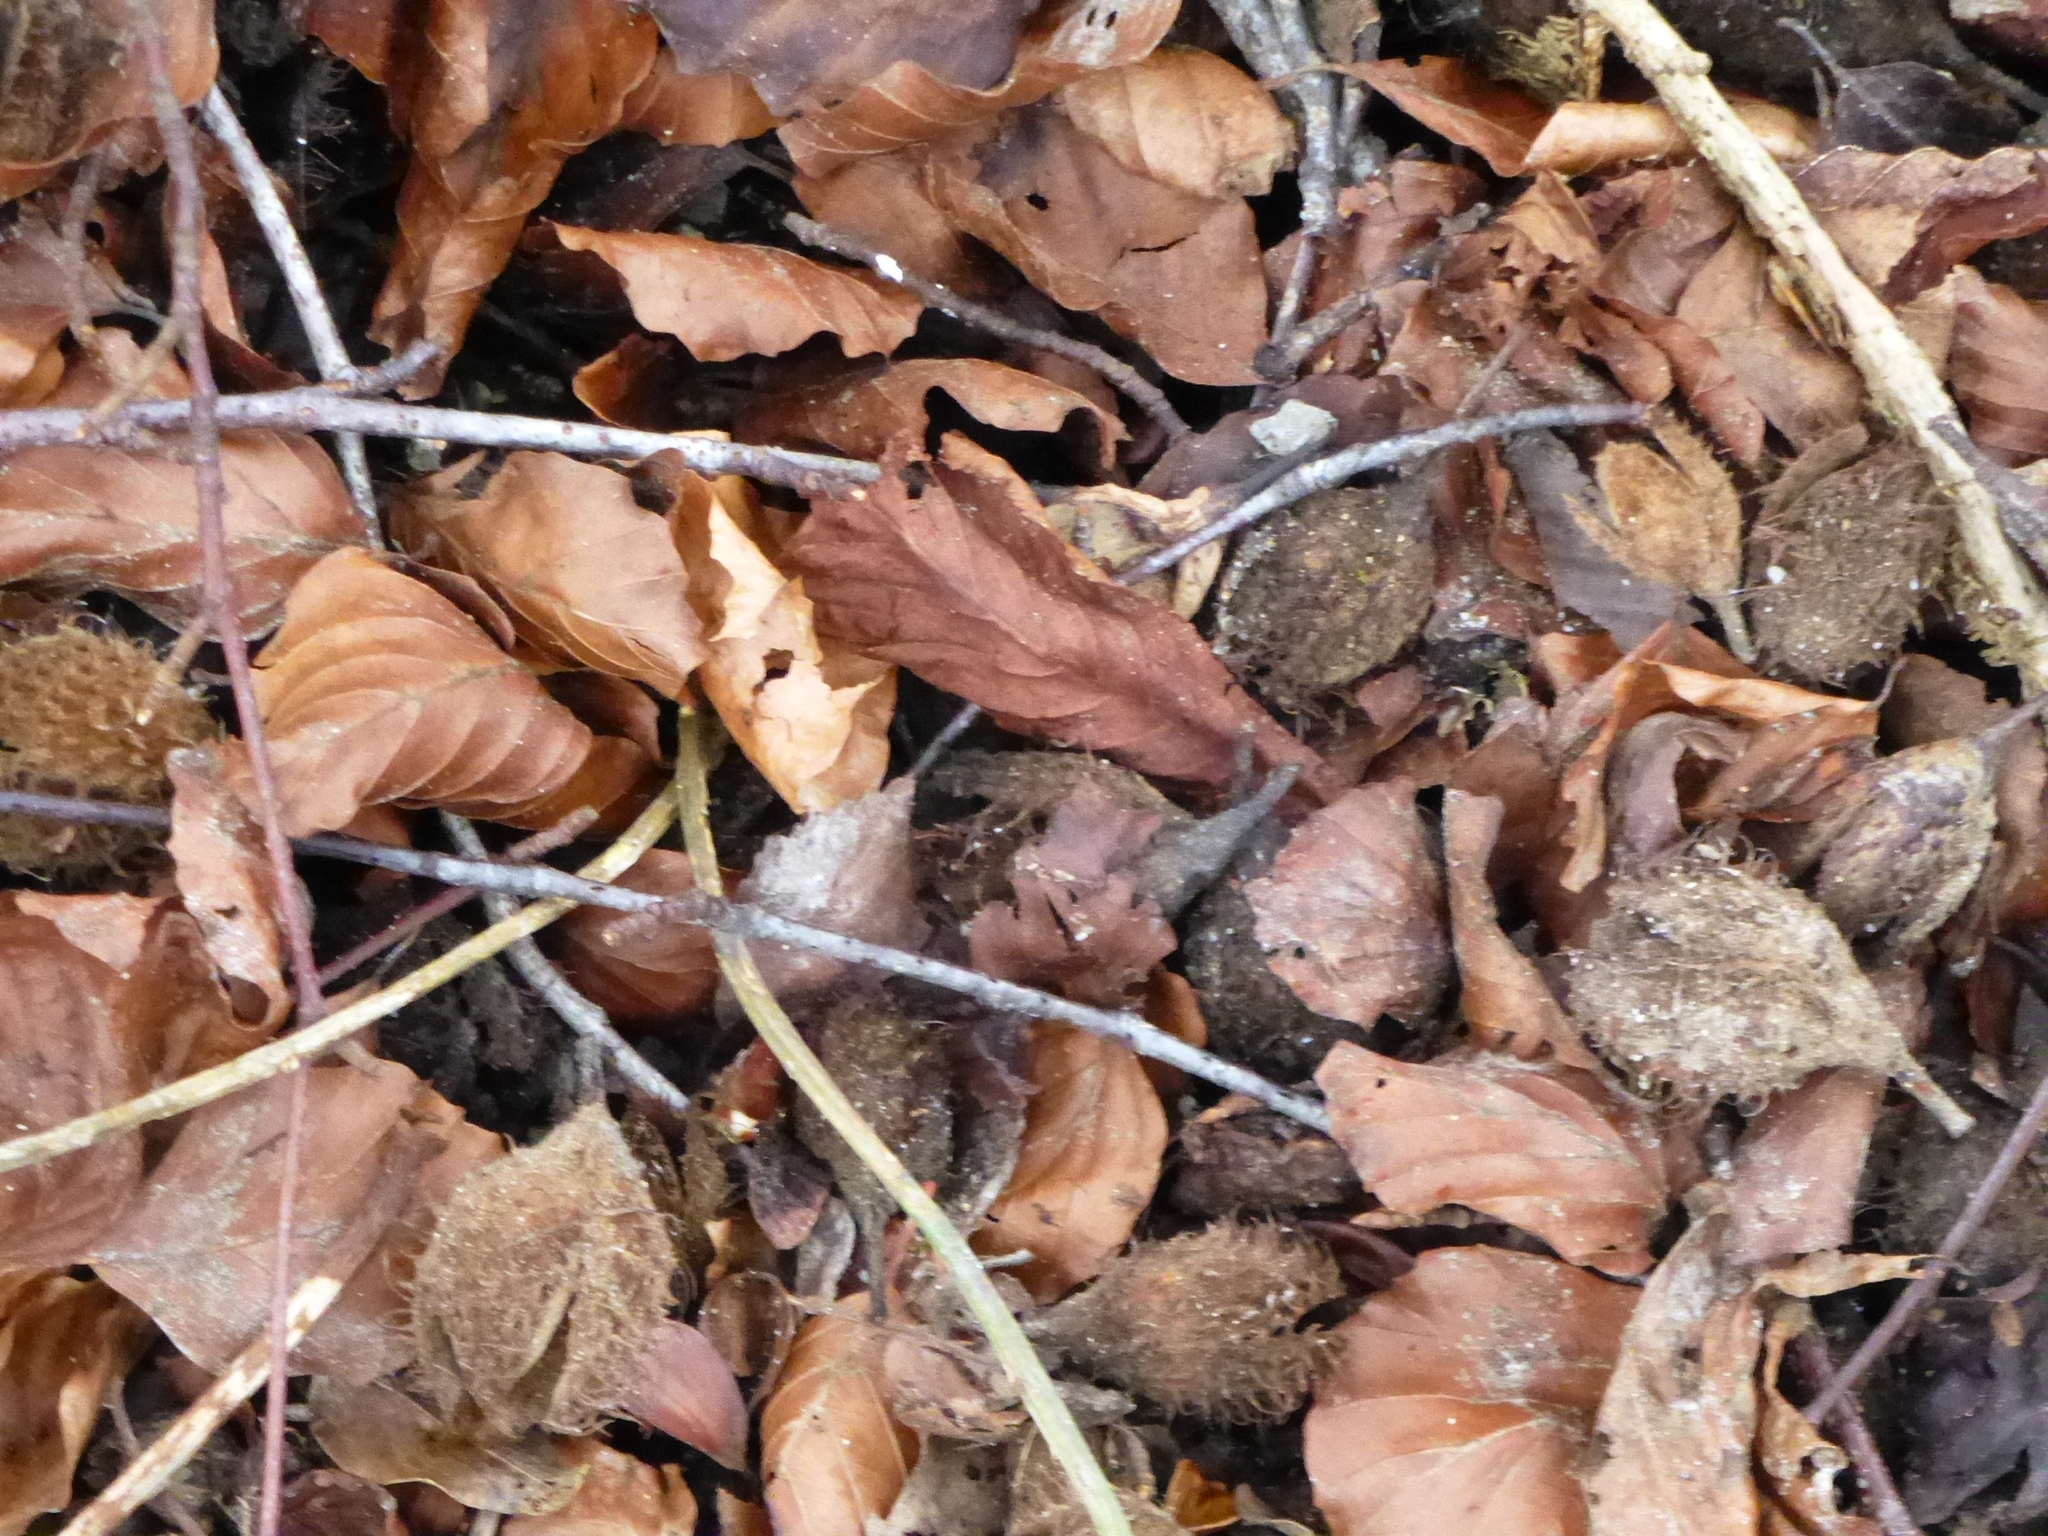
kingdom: Plantae
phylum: Tracheophyta
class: Magnoliopsida
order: Fagales
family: Fagaceae
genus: Fagus
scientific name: Fagus sylvatica
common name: Beech
